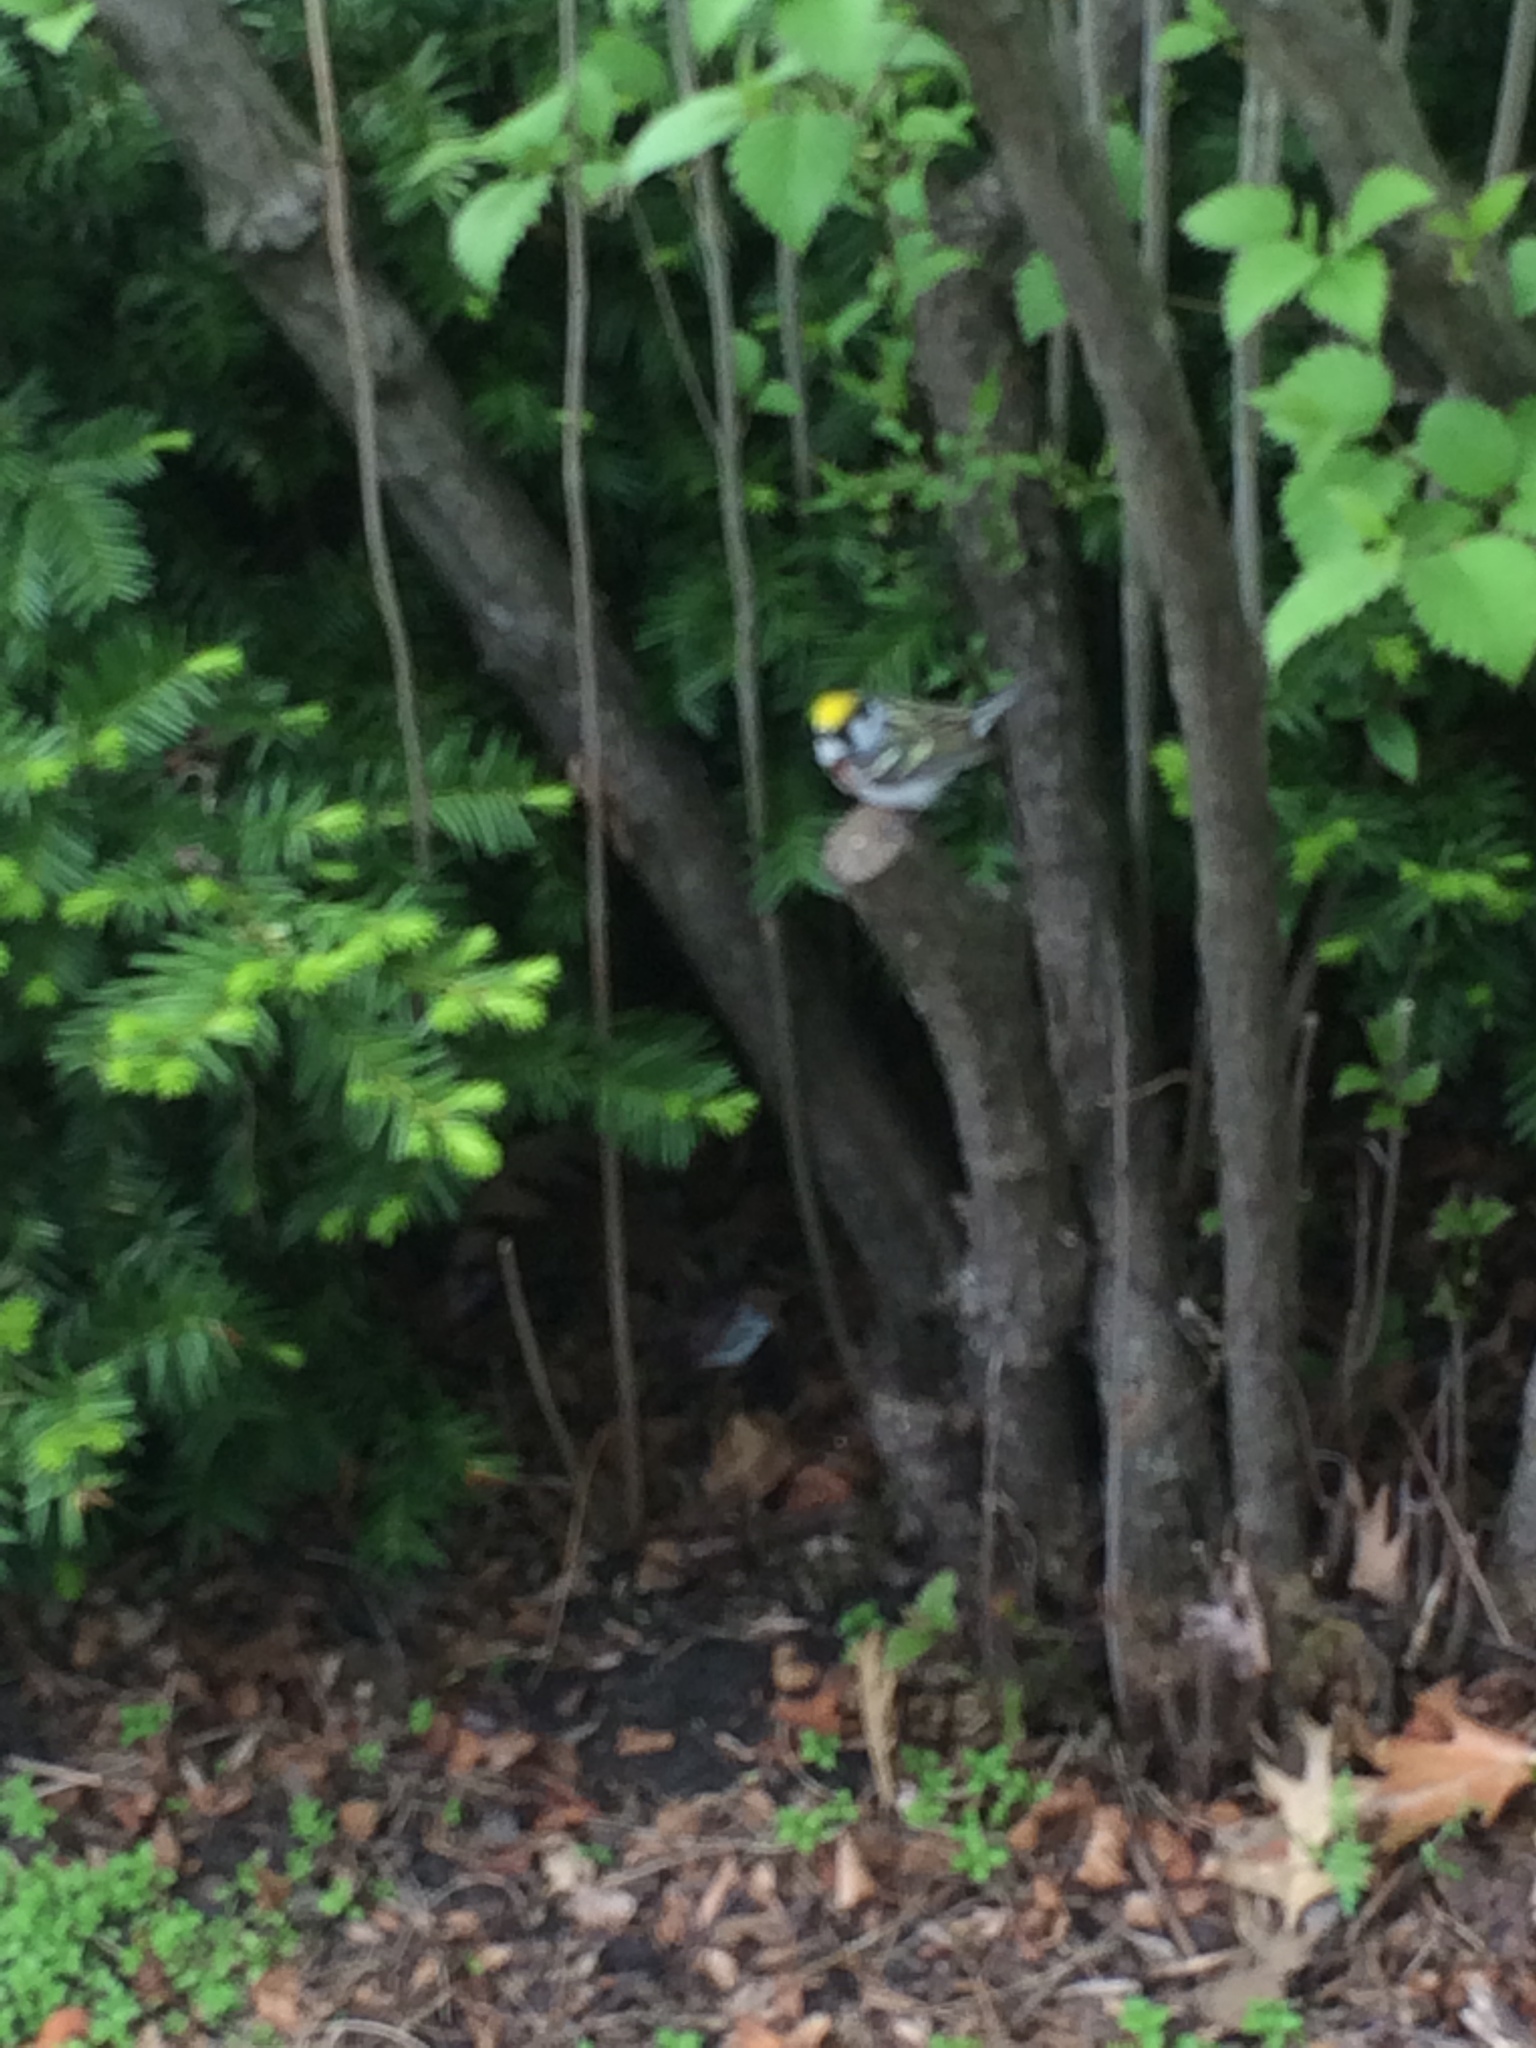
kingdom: Animalia
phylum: Chordata
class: Aves
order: Passeriformes
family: Parulidae
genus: Setophaga
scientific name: Setophaga pensylvanica
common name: Chestnut-sided warbler
